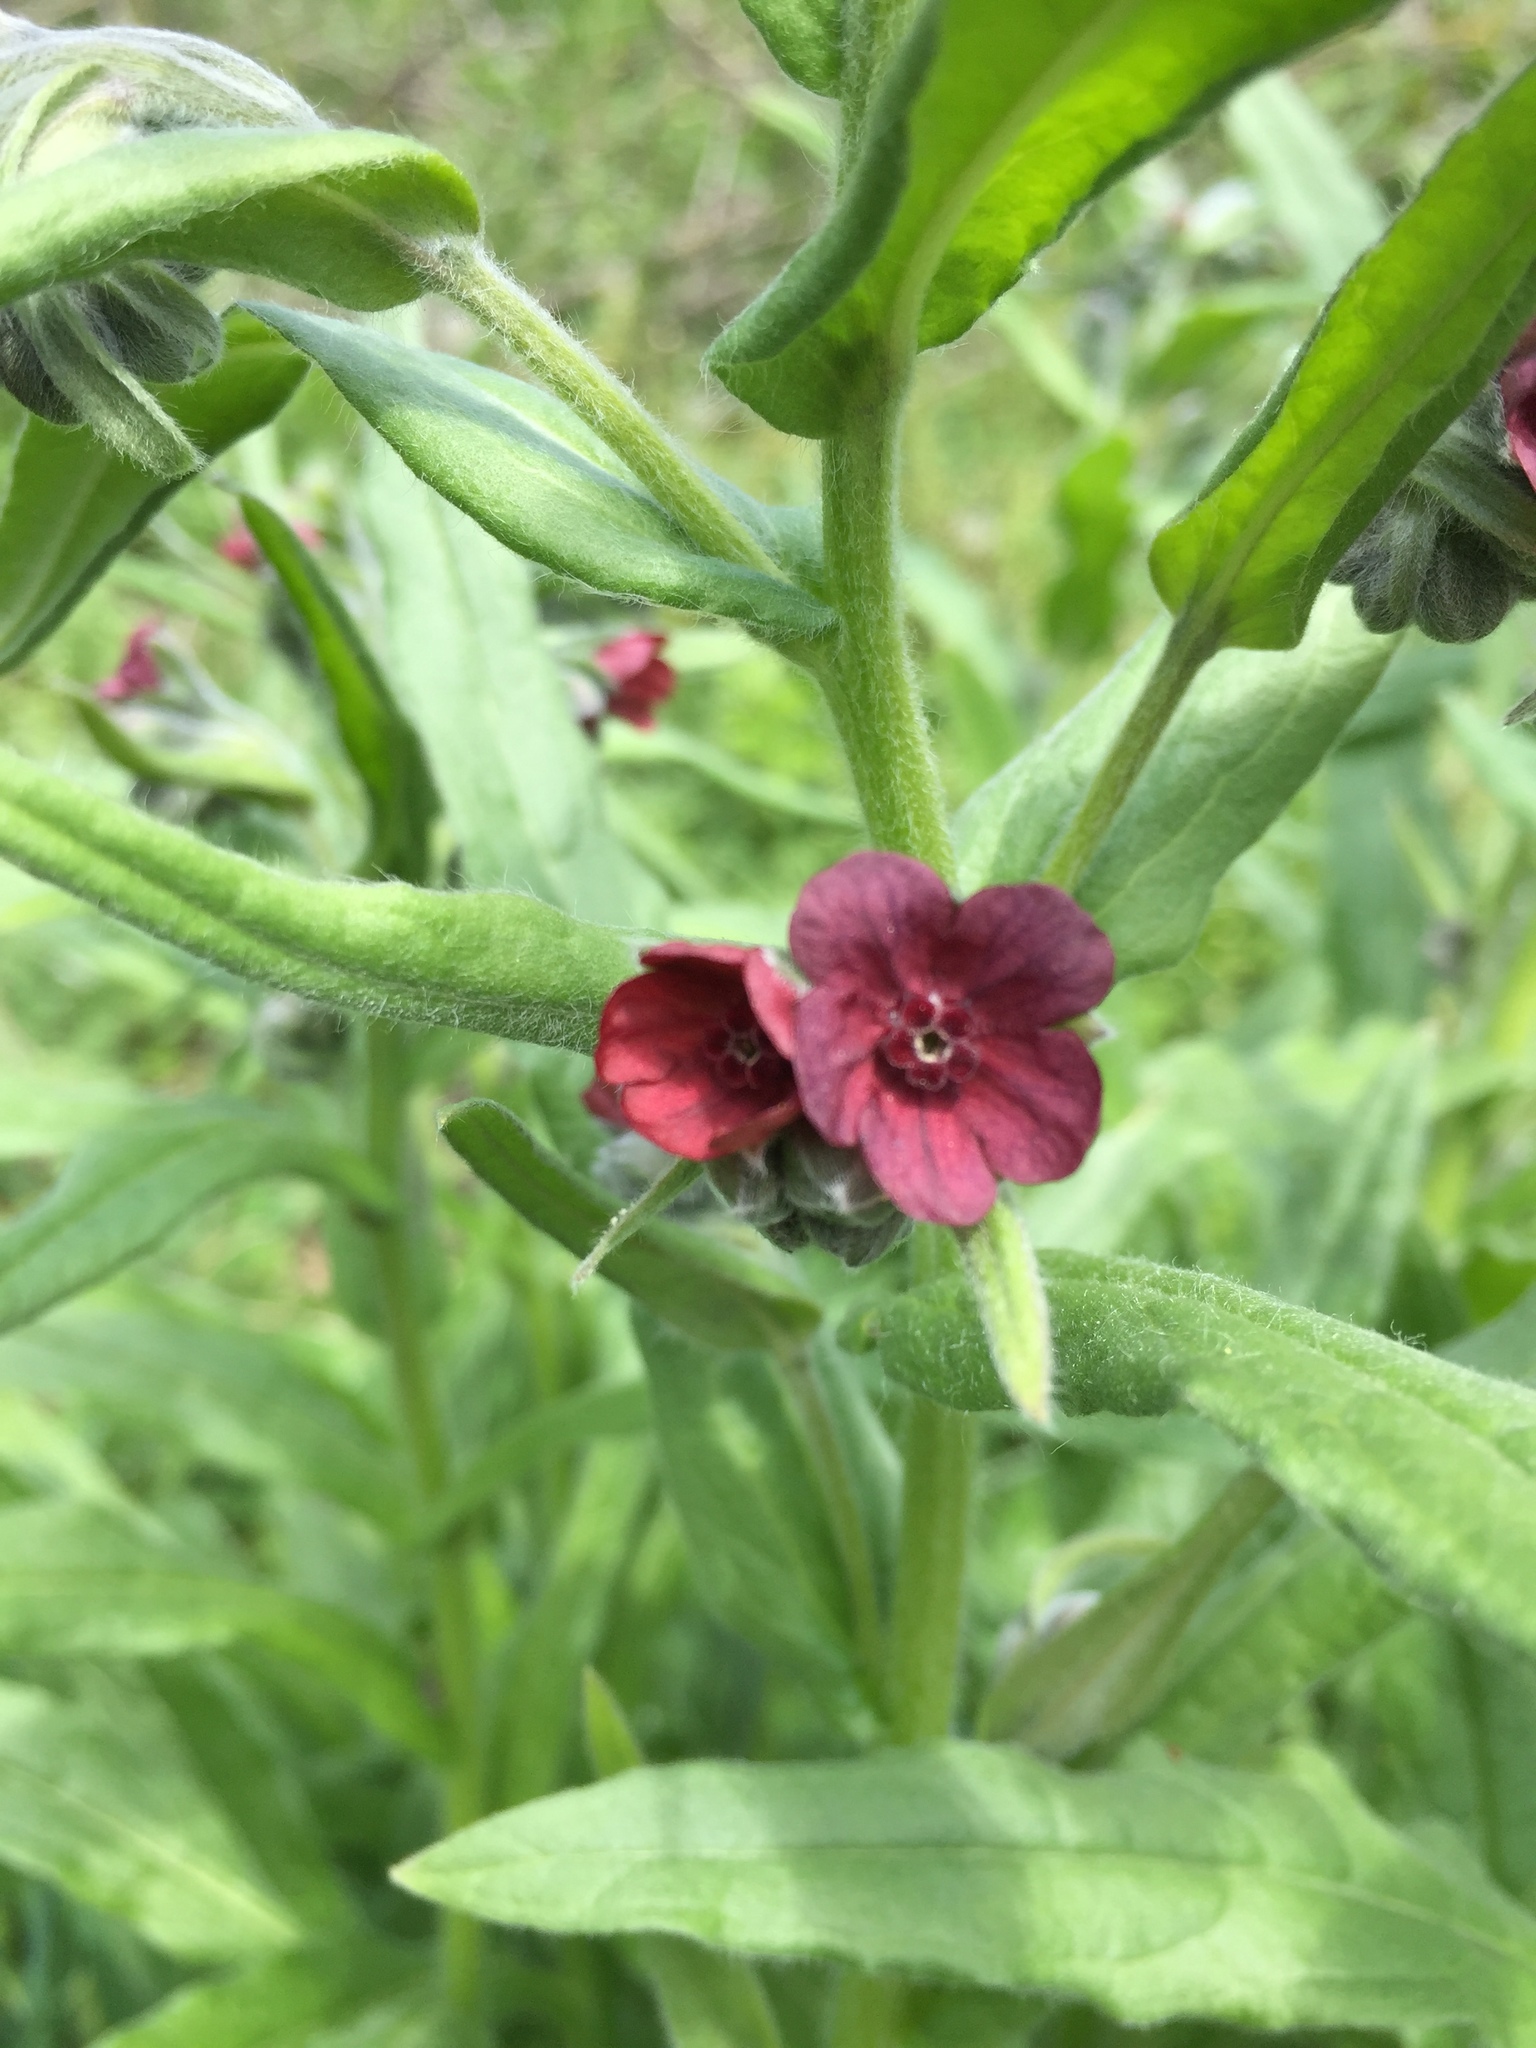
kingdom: Plantae
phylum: Tracheophyta
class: Magnoliopsida
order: Boraginales
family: Boraginaceae
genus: Cynoglossum
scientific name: Cynoglossum officinale
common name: Hound's-tongue
